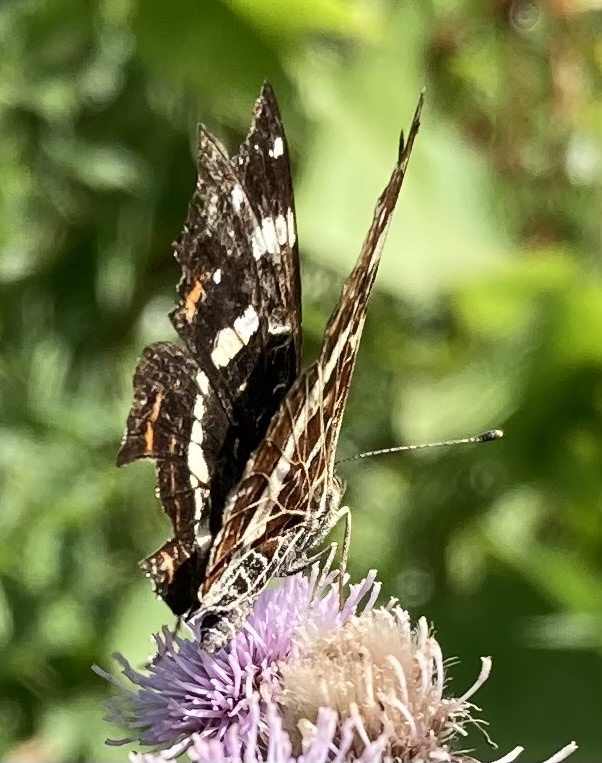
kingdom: Animalia
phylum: Arthropoda
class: Insecta
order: Lepidoptera
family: Nymphalidae
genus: Araschnia
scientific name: Araschnia levana
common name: Map butterfly
